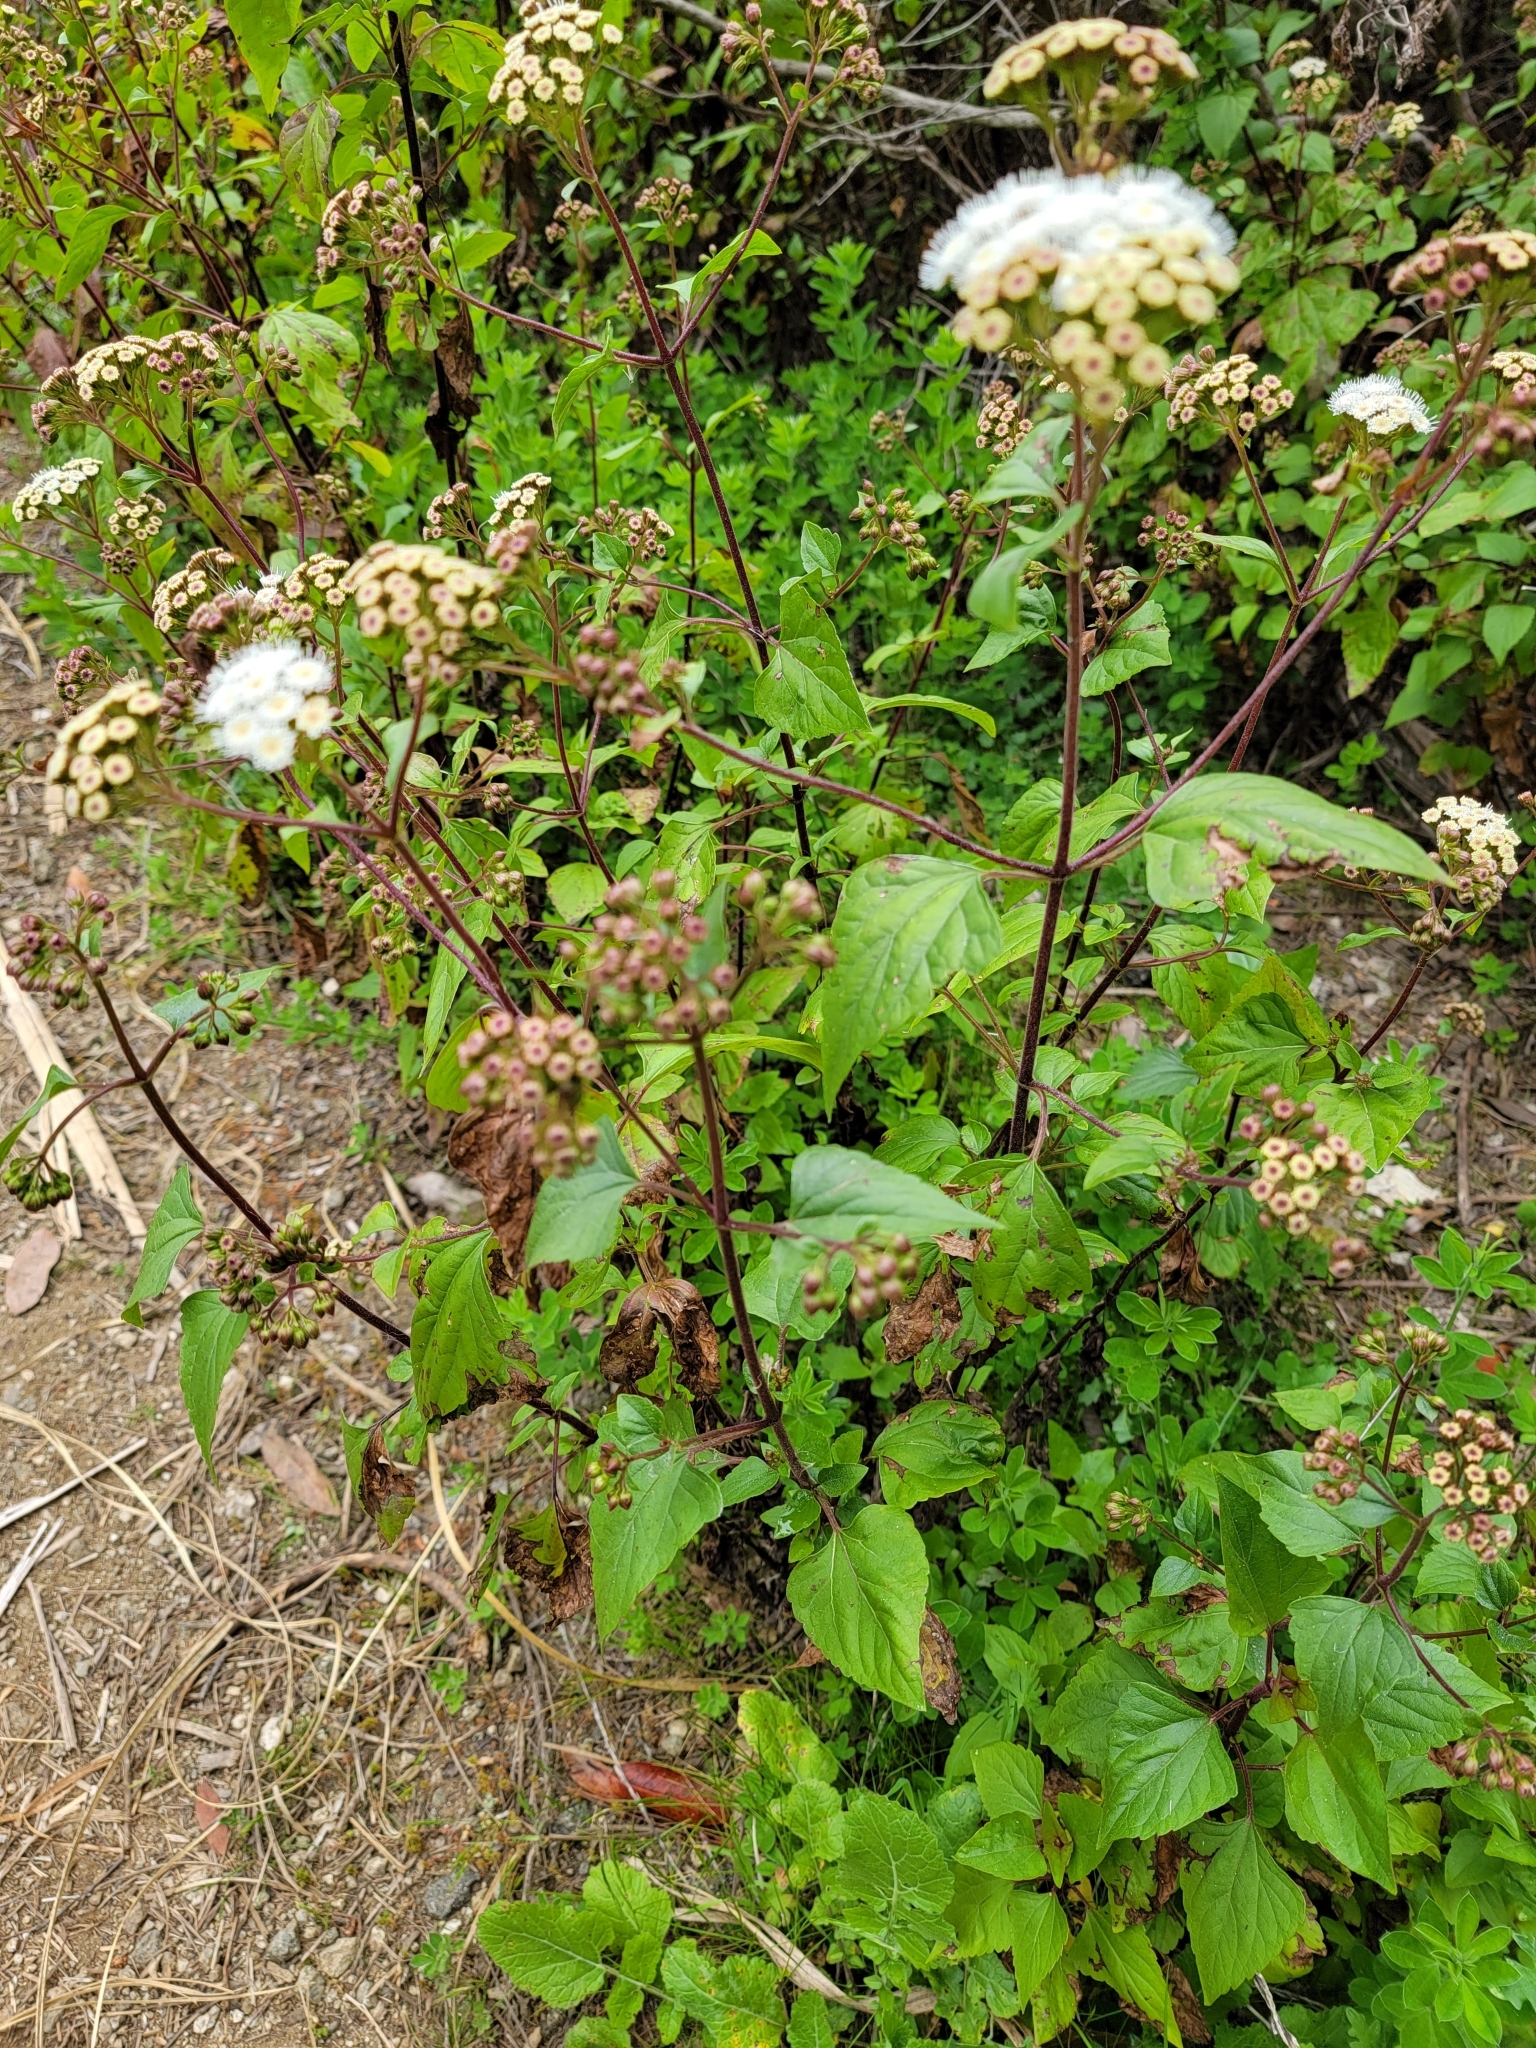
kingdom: Plantae
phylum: Tracheophyta
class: Magnoliopsida
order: Asterales
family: Asteraceae
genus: Ageratina
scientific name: Ageratina adenophora
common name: Sticky snakeroot
